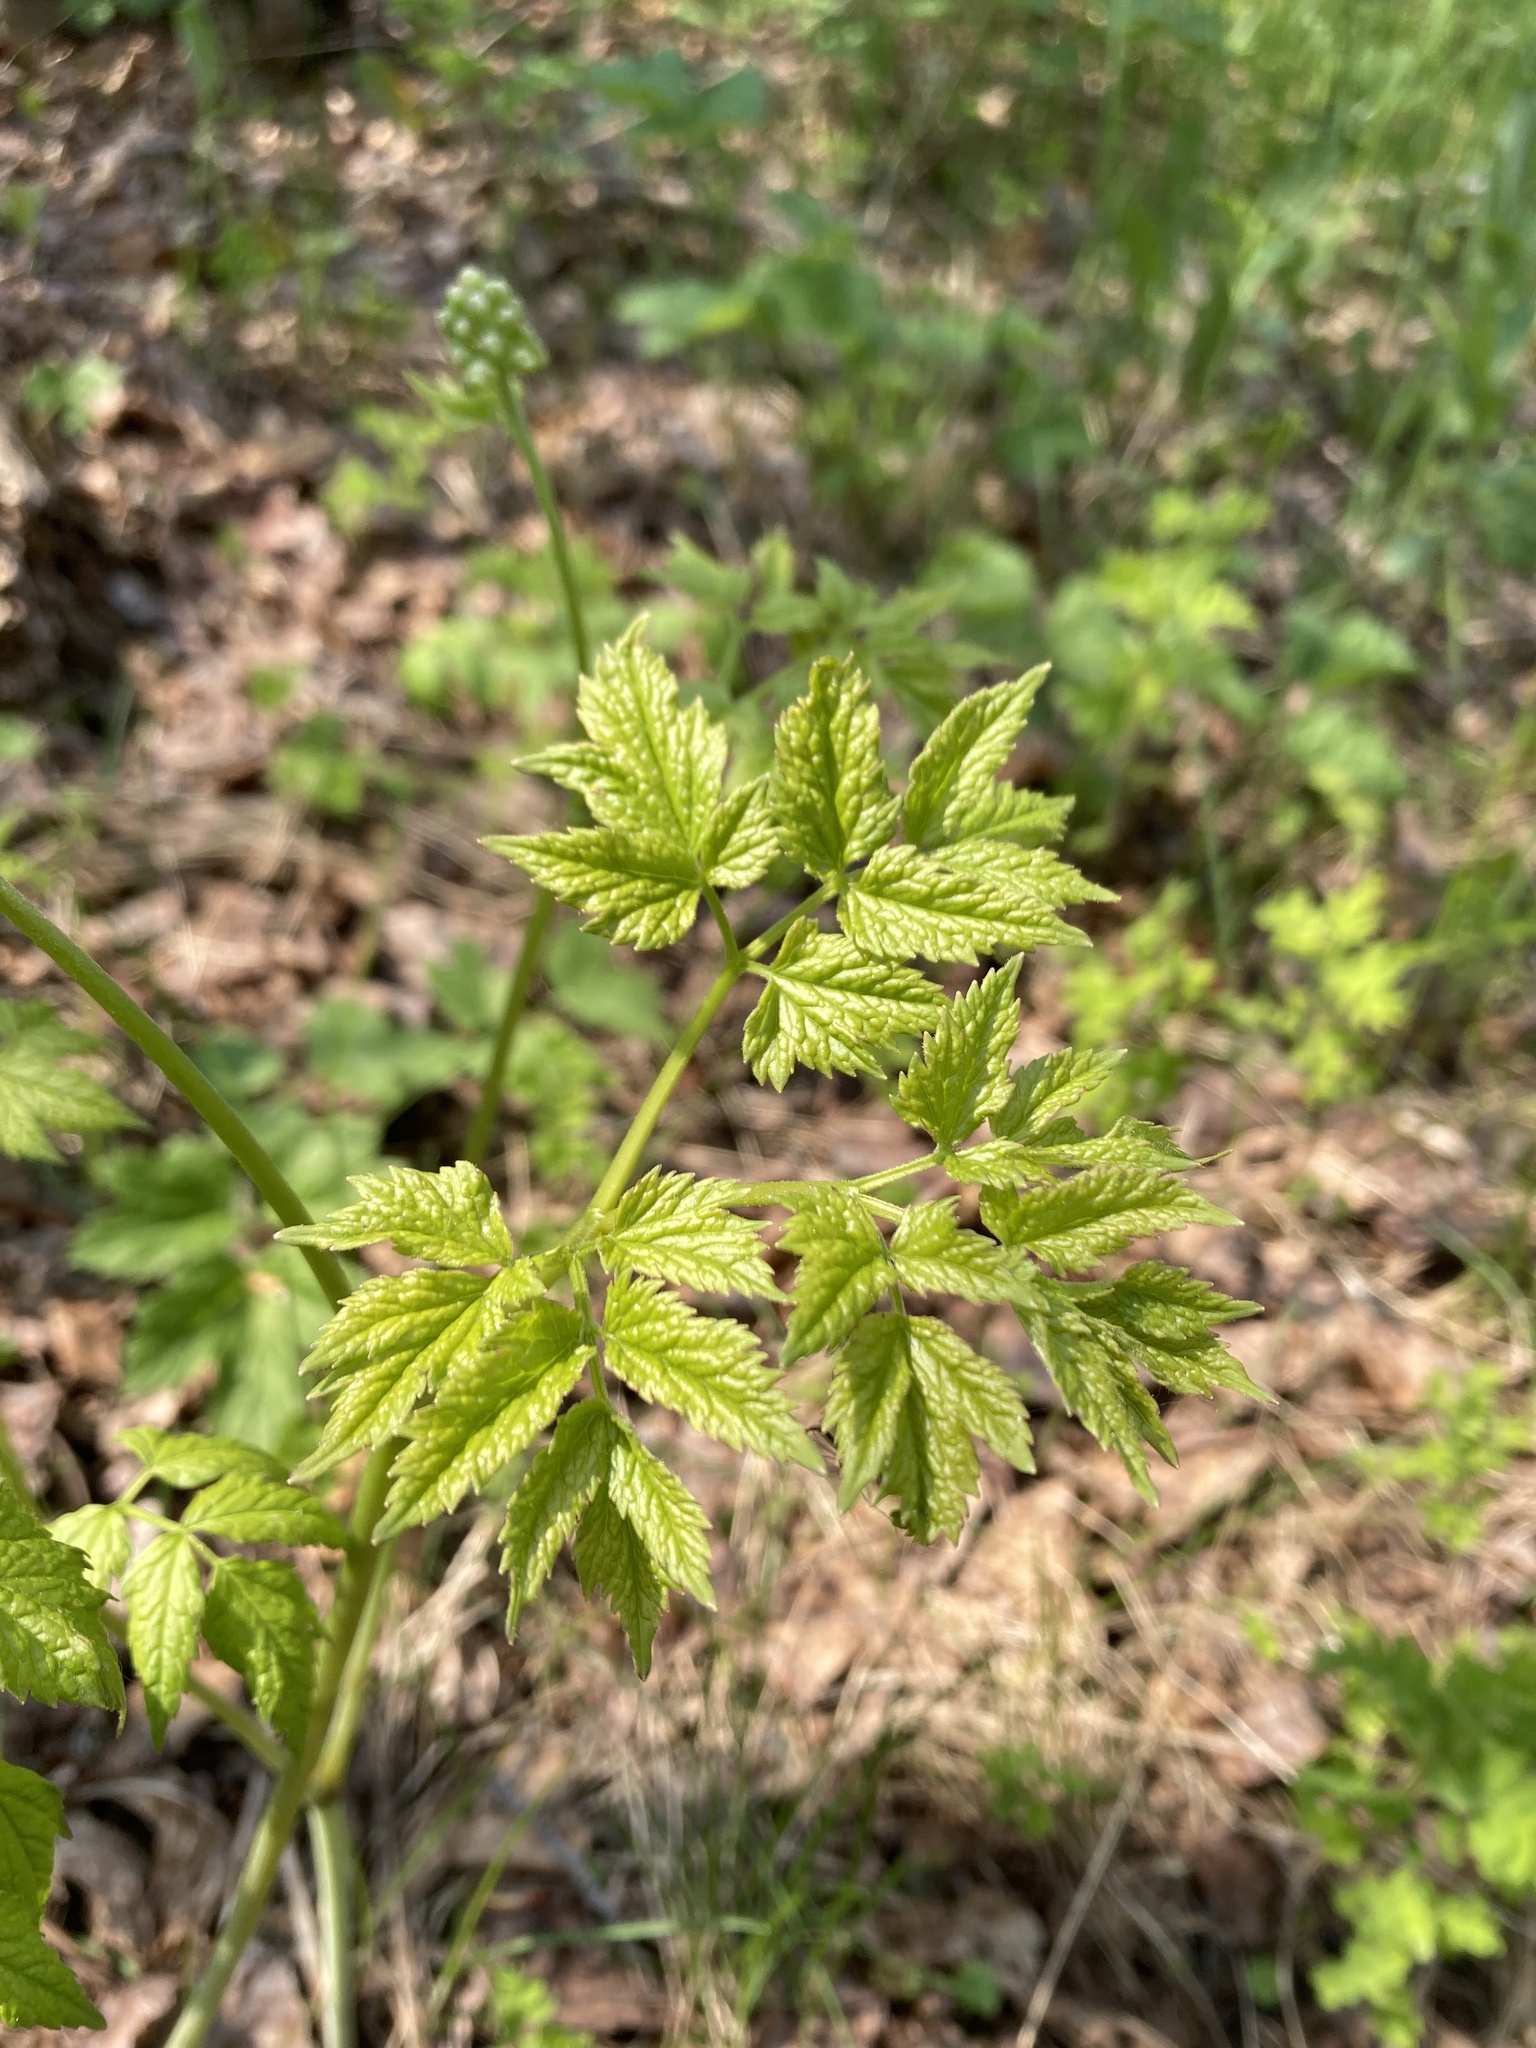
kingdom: Plantae
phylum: Tracheophyta
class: Magnoliopsida
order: Ranunculales
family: Ranunculaceae
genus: Actaea
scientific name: Actaea rubra
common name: Red baneberry
